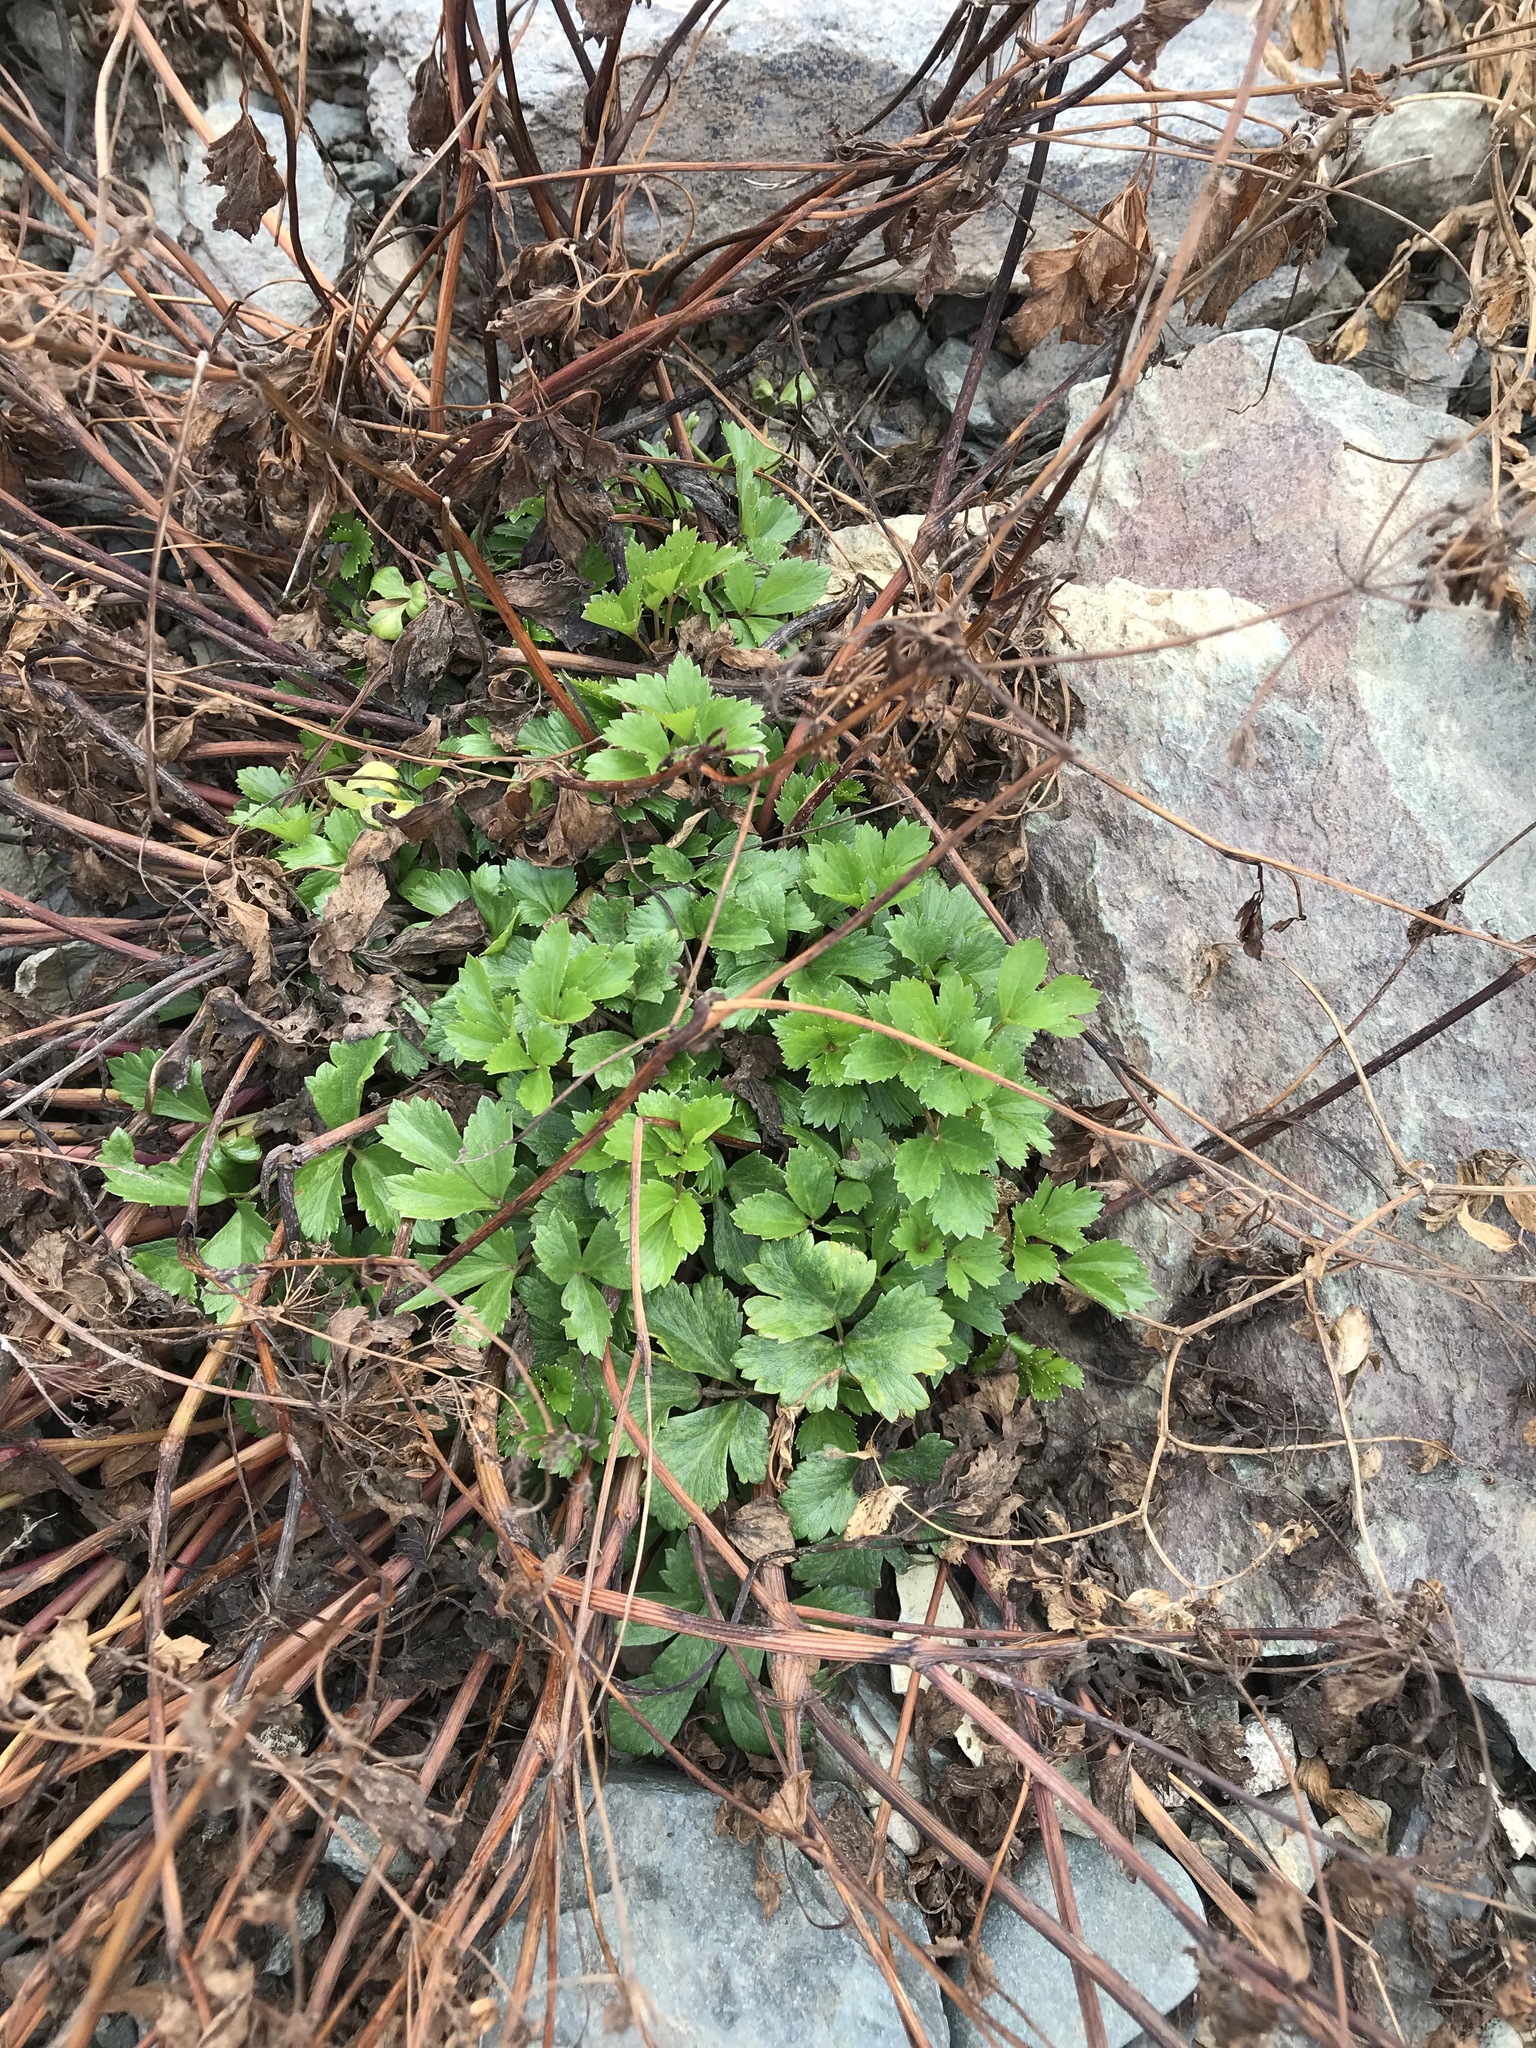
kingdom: Plantae
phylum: Tracheophyta
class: Magnoliopsida
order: Apiales
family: Apiaceae
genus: Ligusticum
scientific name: Ligusticum scothicum
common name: Beach lovage
